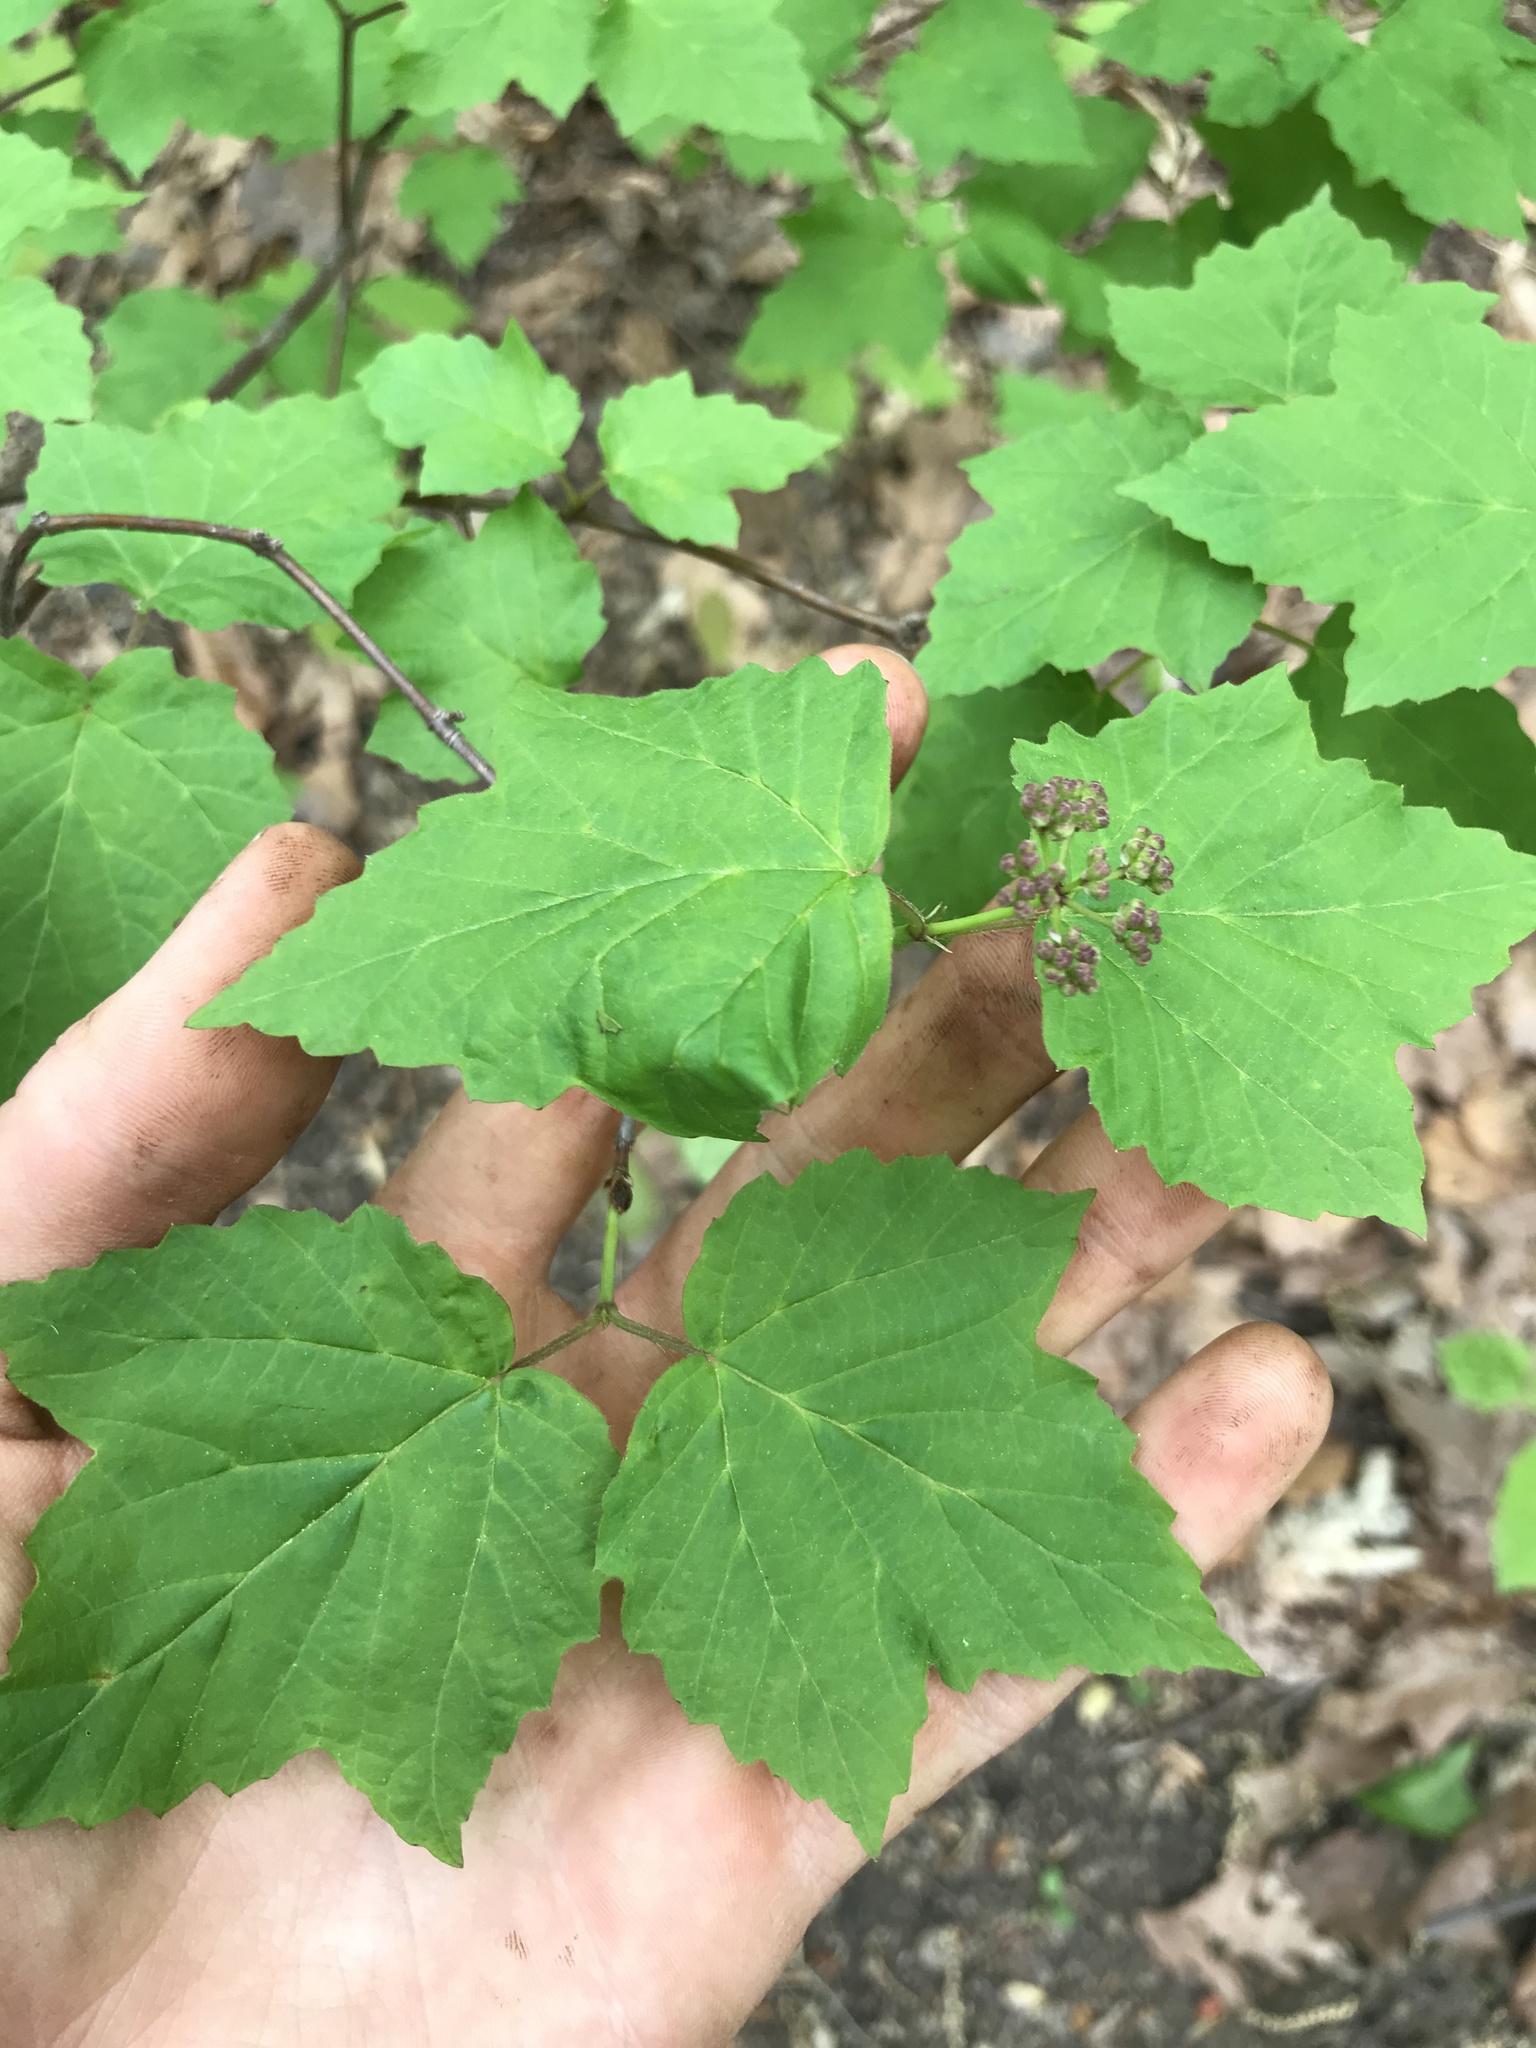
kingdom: Plantae
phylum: Tracheophyta
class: Magnoliopsida
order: Dipsacales
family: Viburnaceae
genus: Viburnum
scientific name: Viburnum acerifolium
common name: Dockmackie
